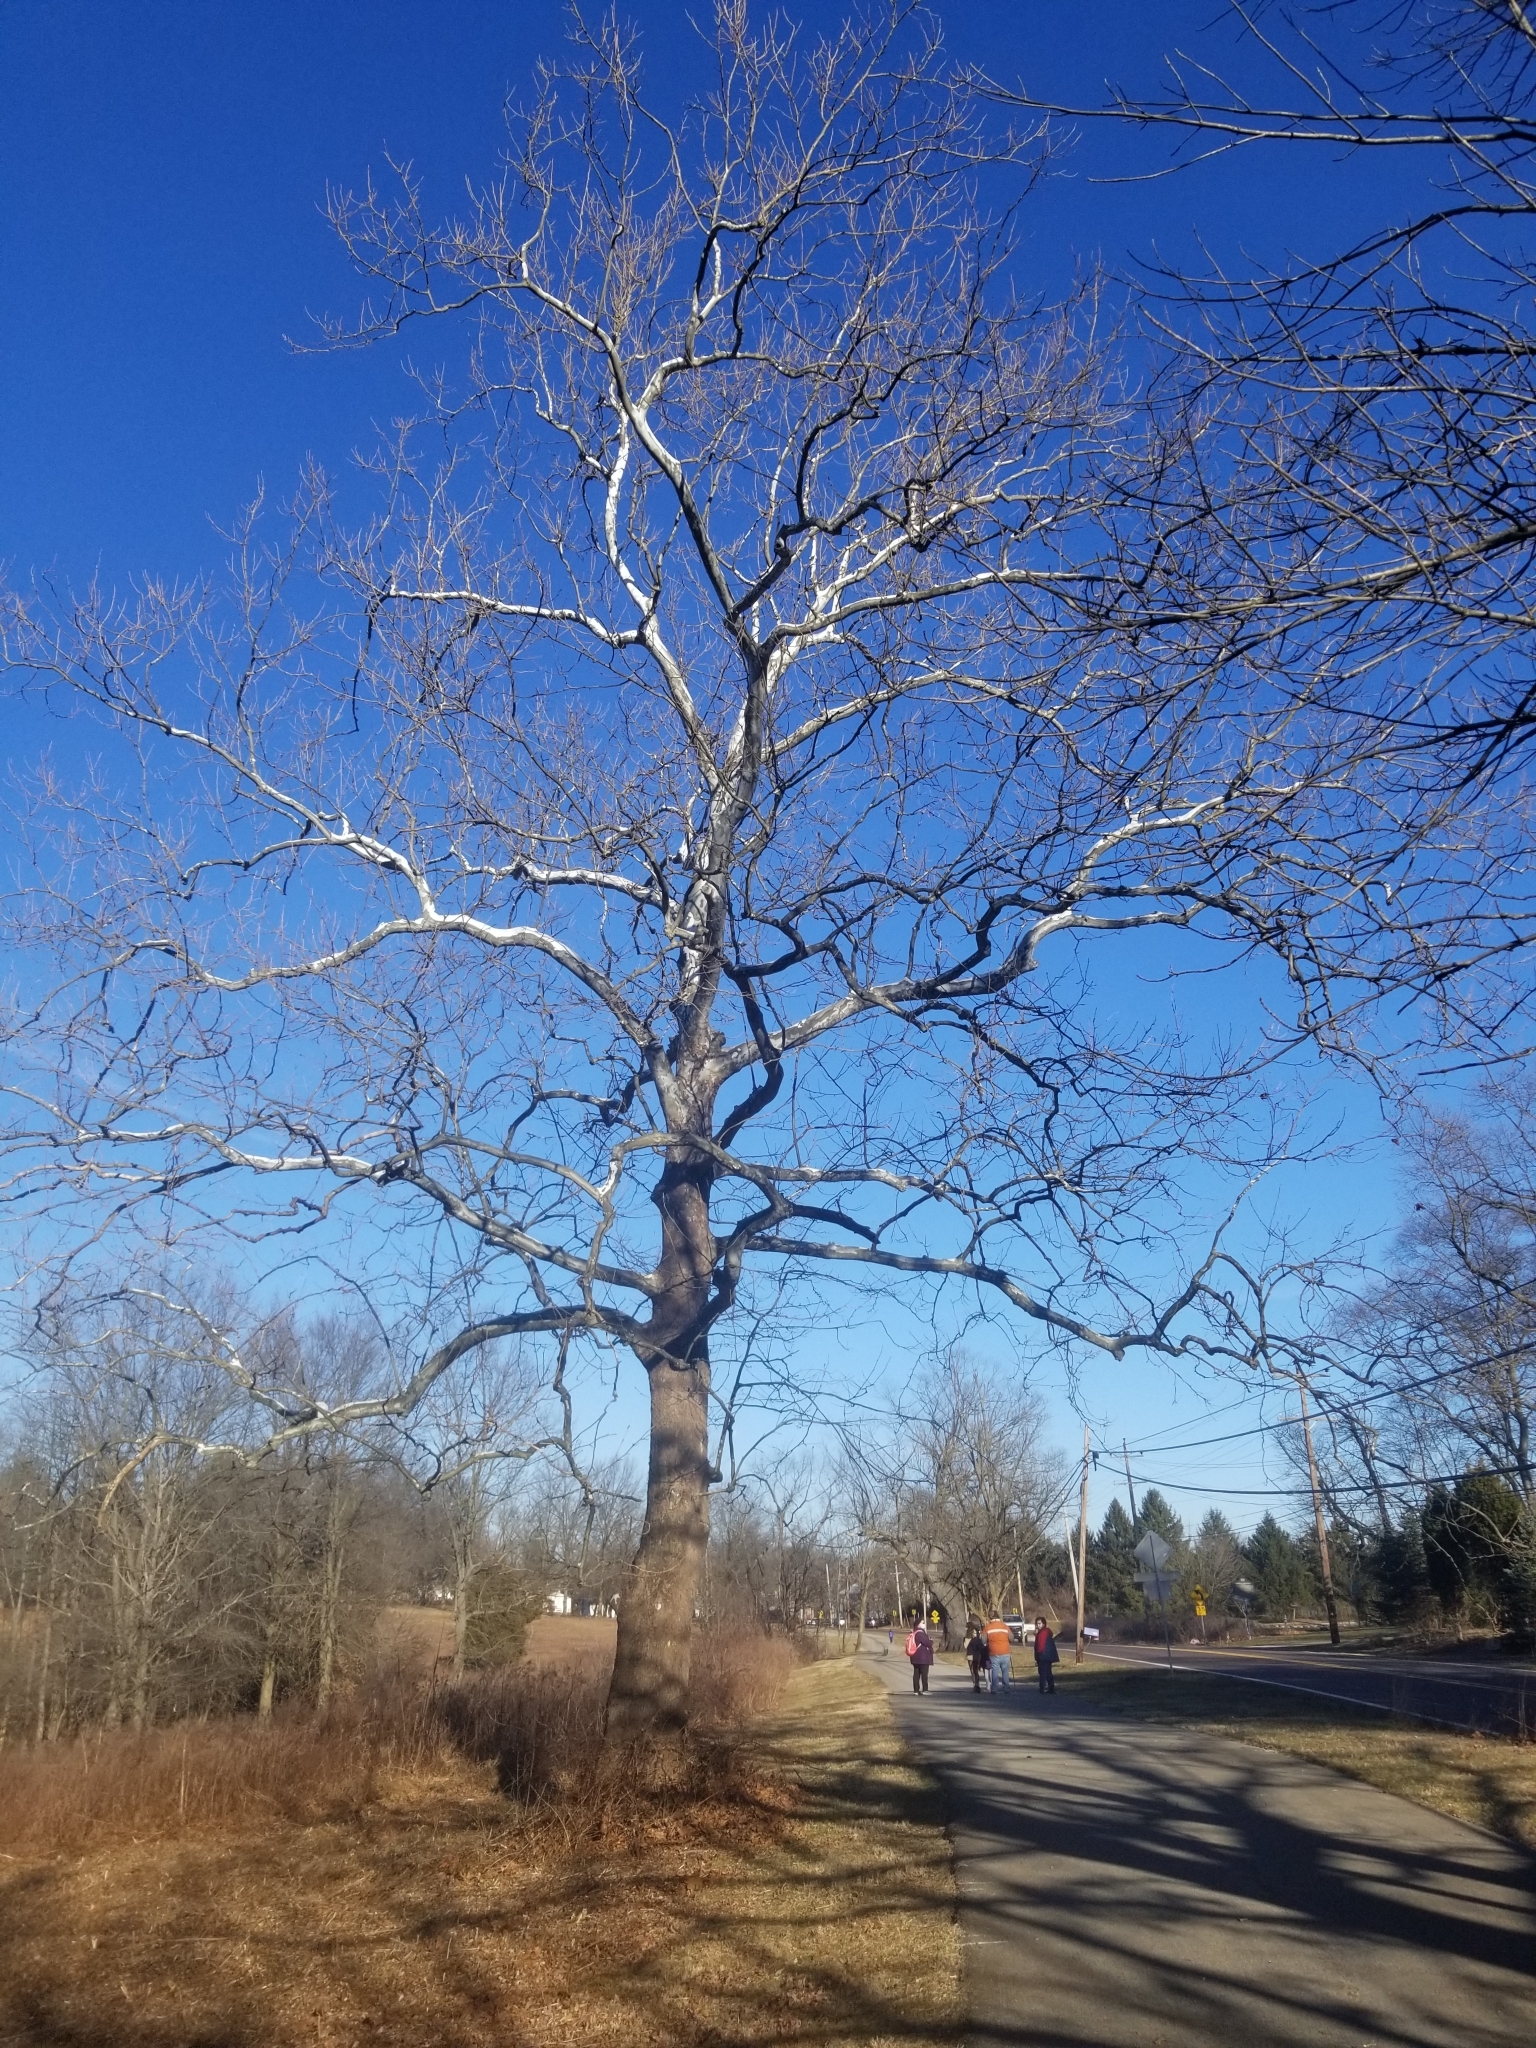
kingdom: Plantae
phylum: Tracheophyta
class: Magnoliopsida
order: Proteales
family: Platanaceae
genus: Platanus
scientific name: Platanus occidentalis
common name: American sycamore
